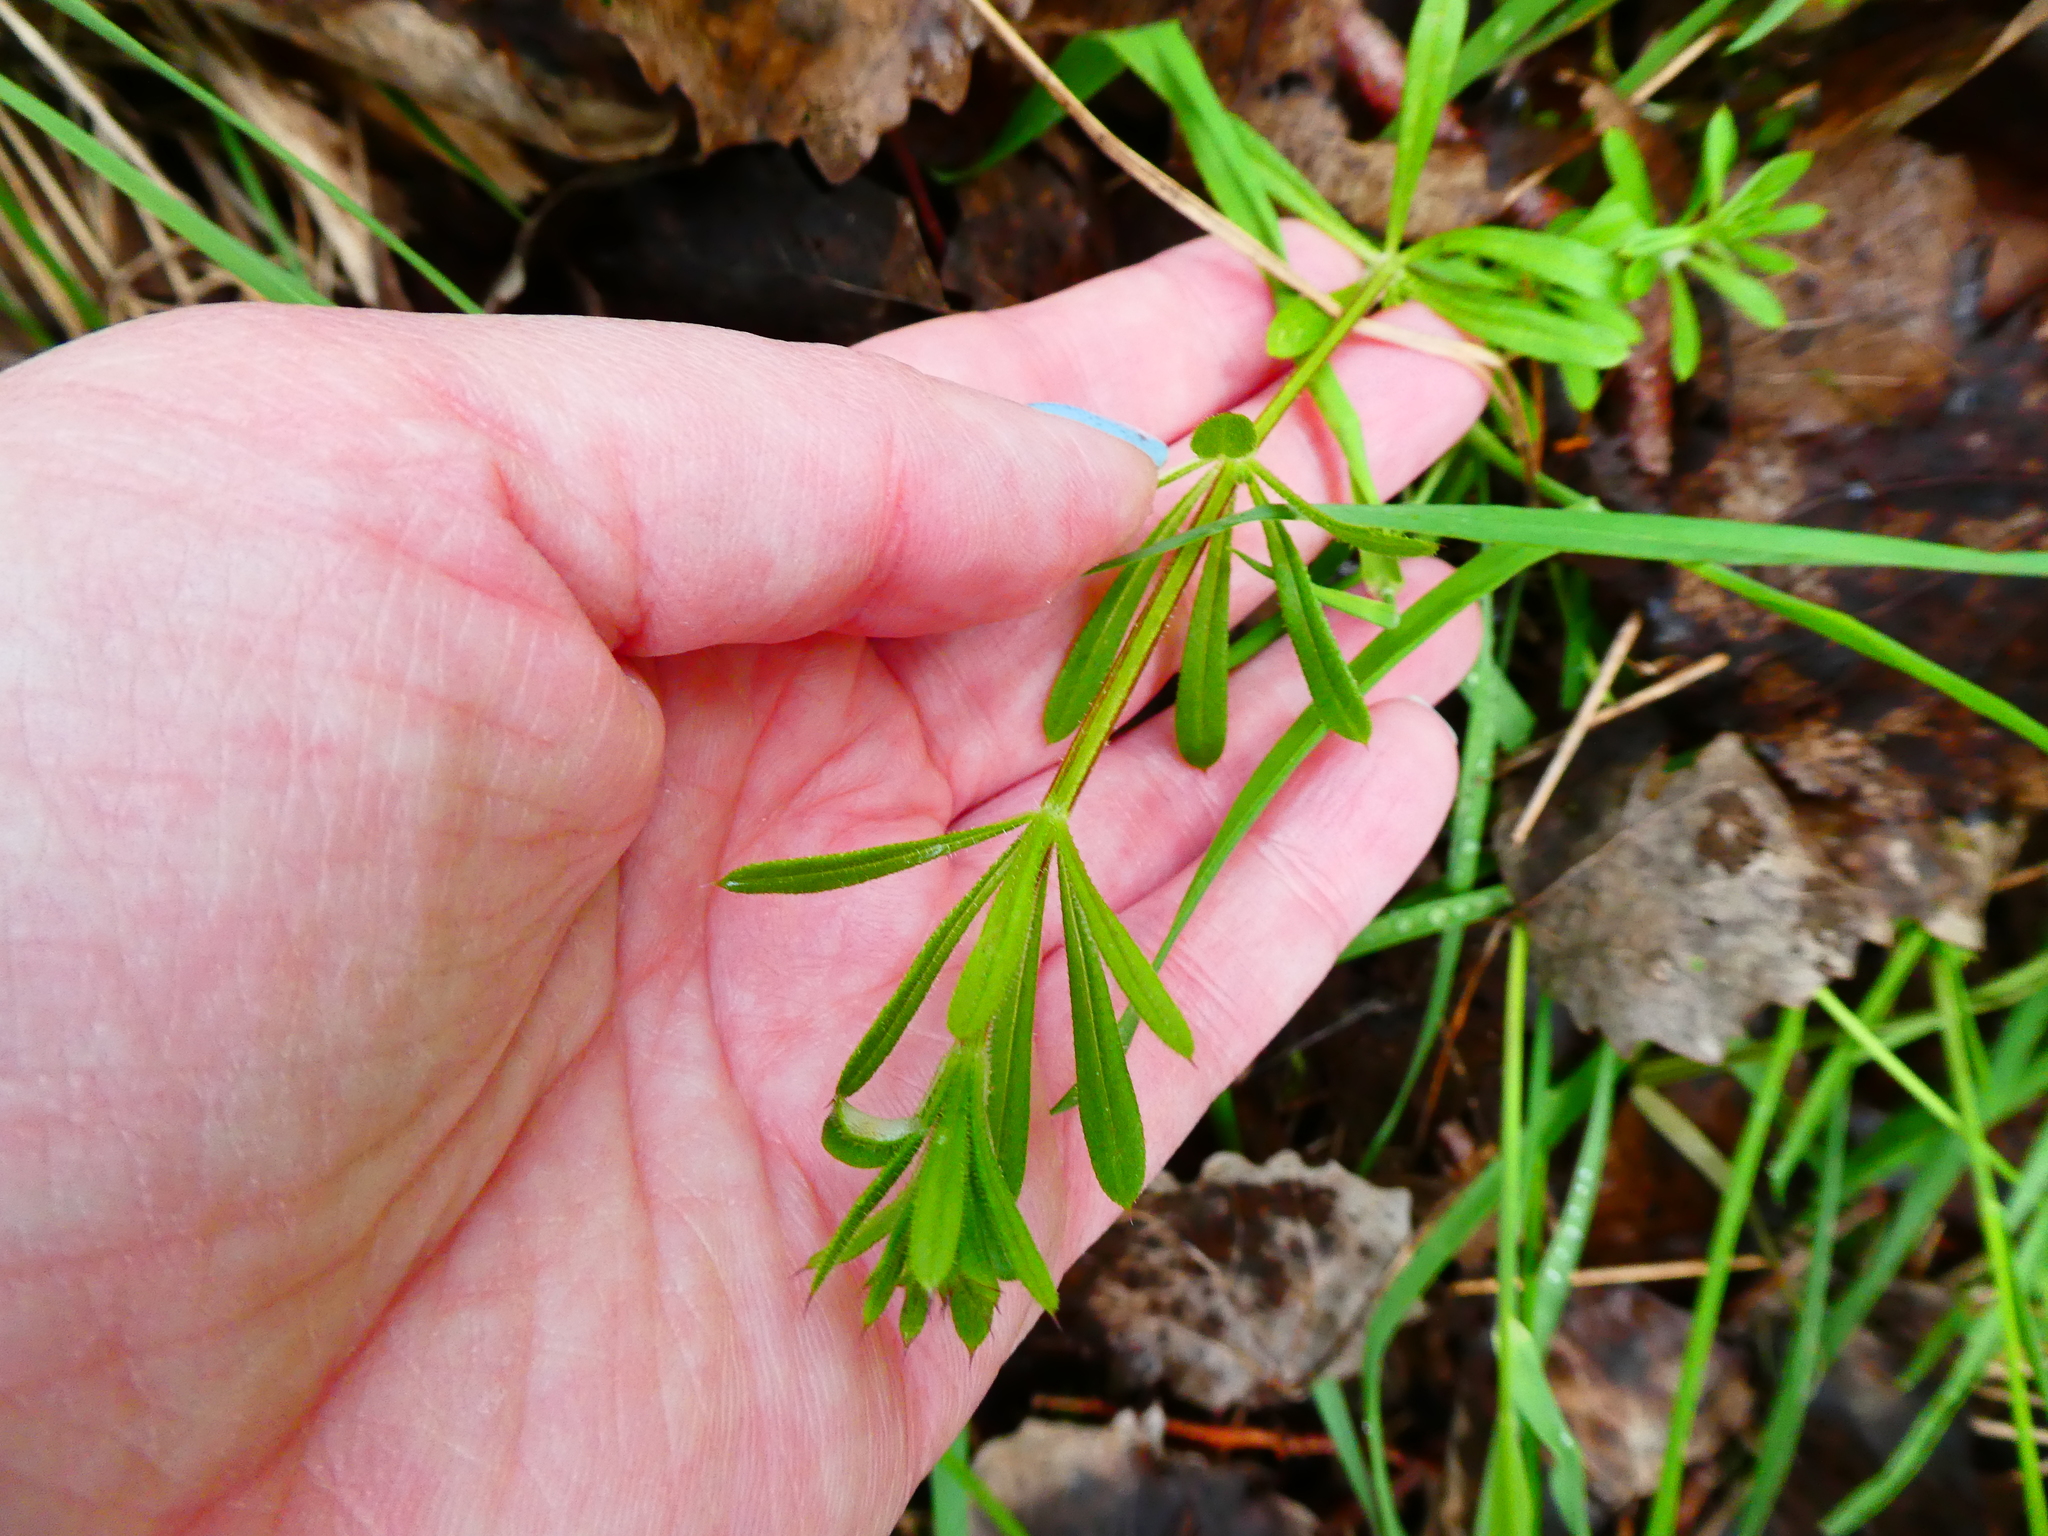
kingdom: Plantae
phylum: Tracheophyta
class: Magnoliopsida
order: Gentianales
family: Rubiaceae
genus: Galium
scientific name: Galium aparine
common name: Cleavers
